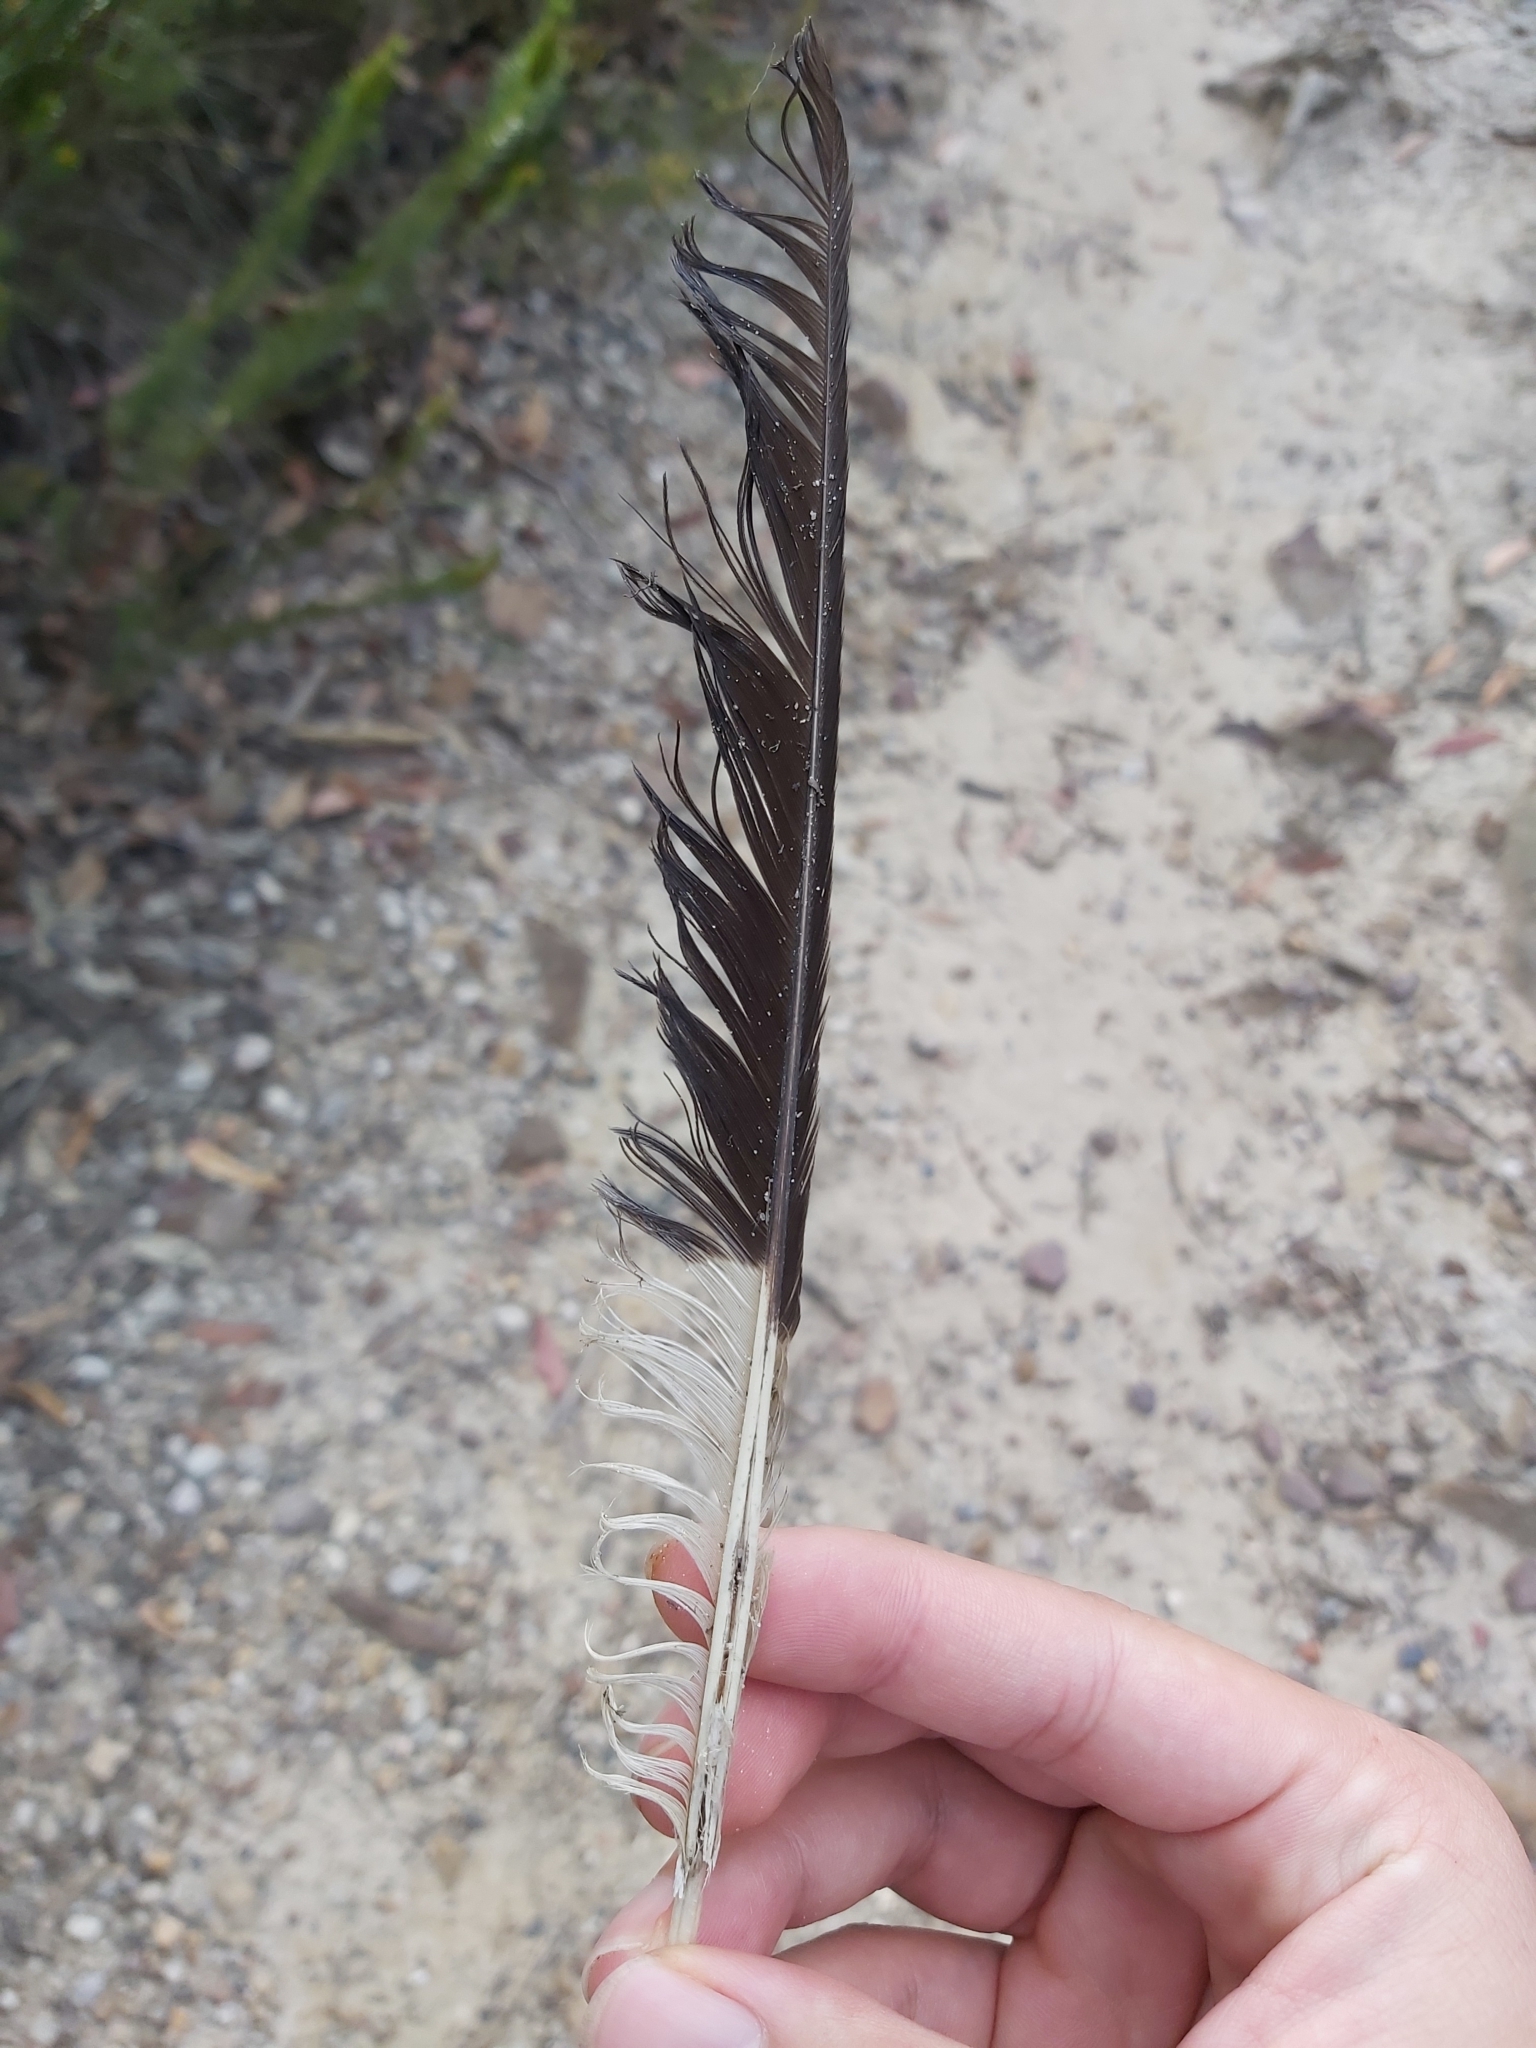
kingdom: Animalia
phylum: Chordata
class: Aves
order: Passeriformes
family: Cracticidae
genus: Strepera
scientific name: Strepera graculina
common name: Pied currawong
